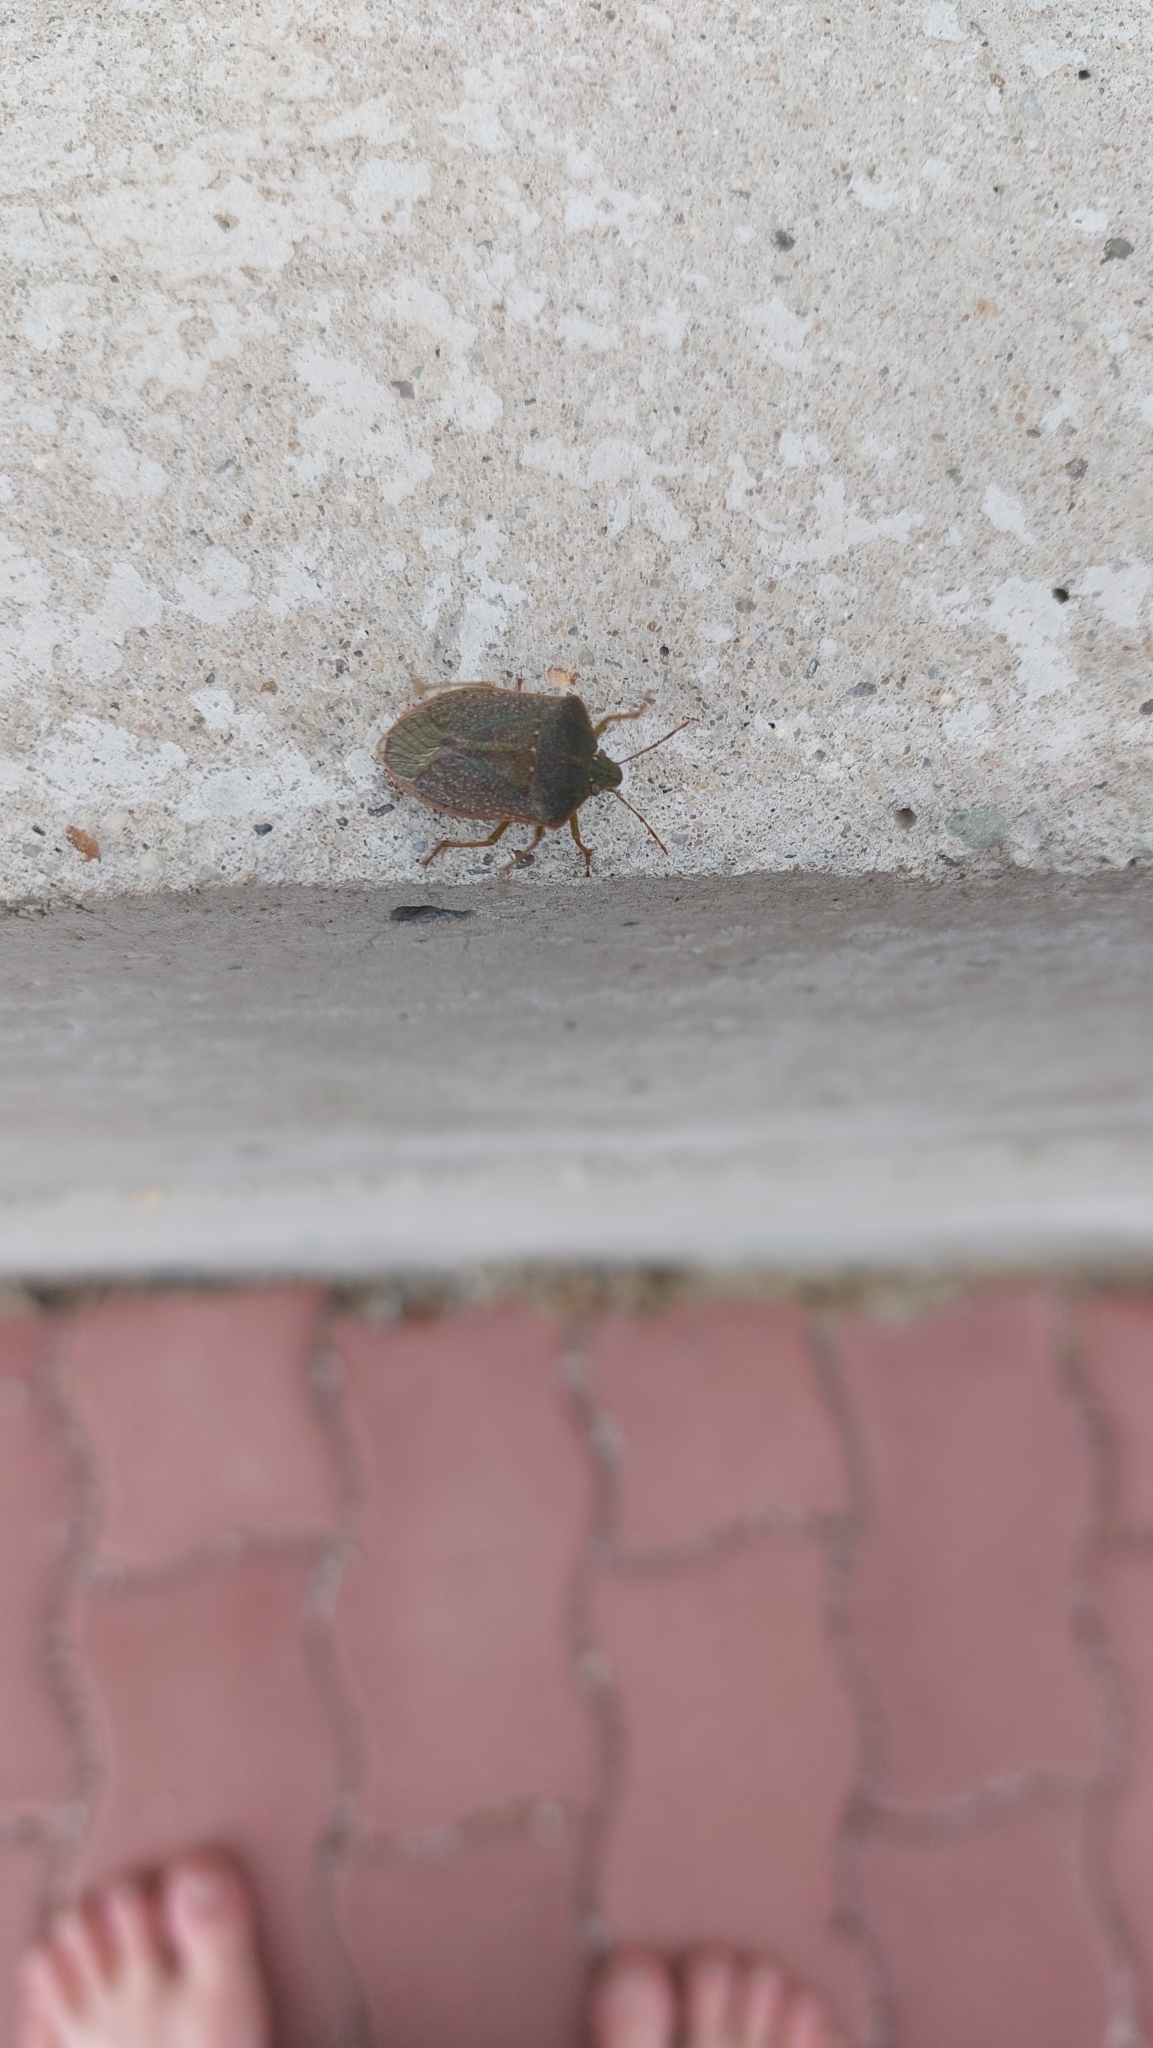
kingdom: Animalia
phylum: Arthropoda
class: Insecta
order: Hemiptera
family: Pentatomidae
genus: Nezara
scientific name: Nezara viridula
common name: Southern green stink bug
